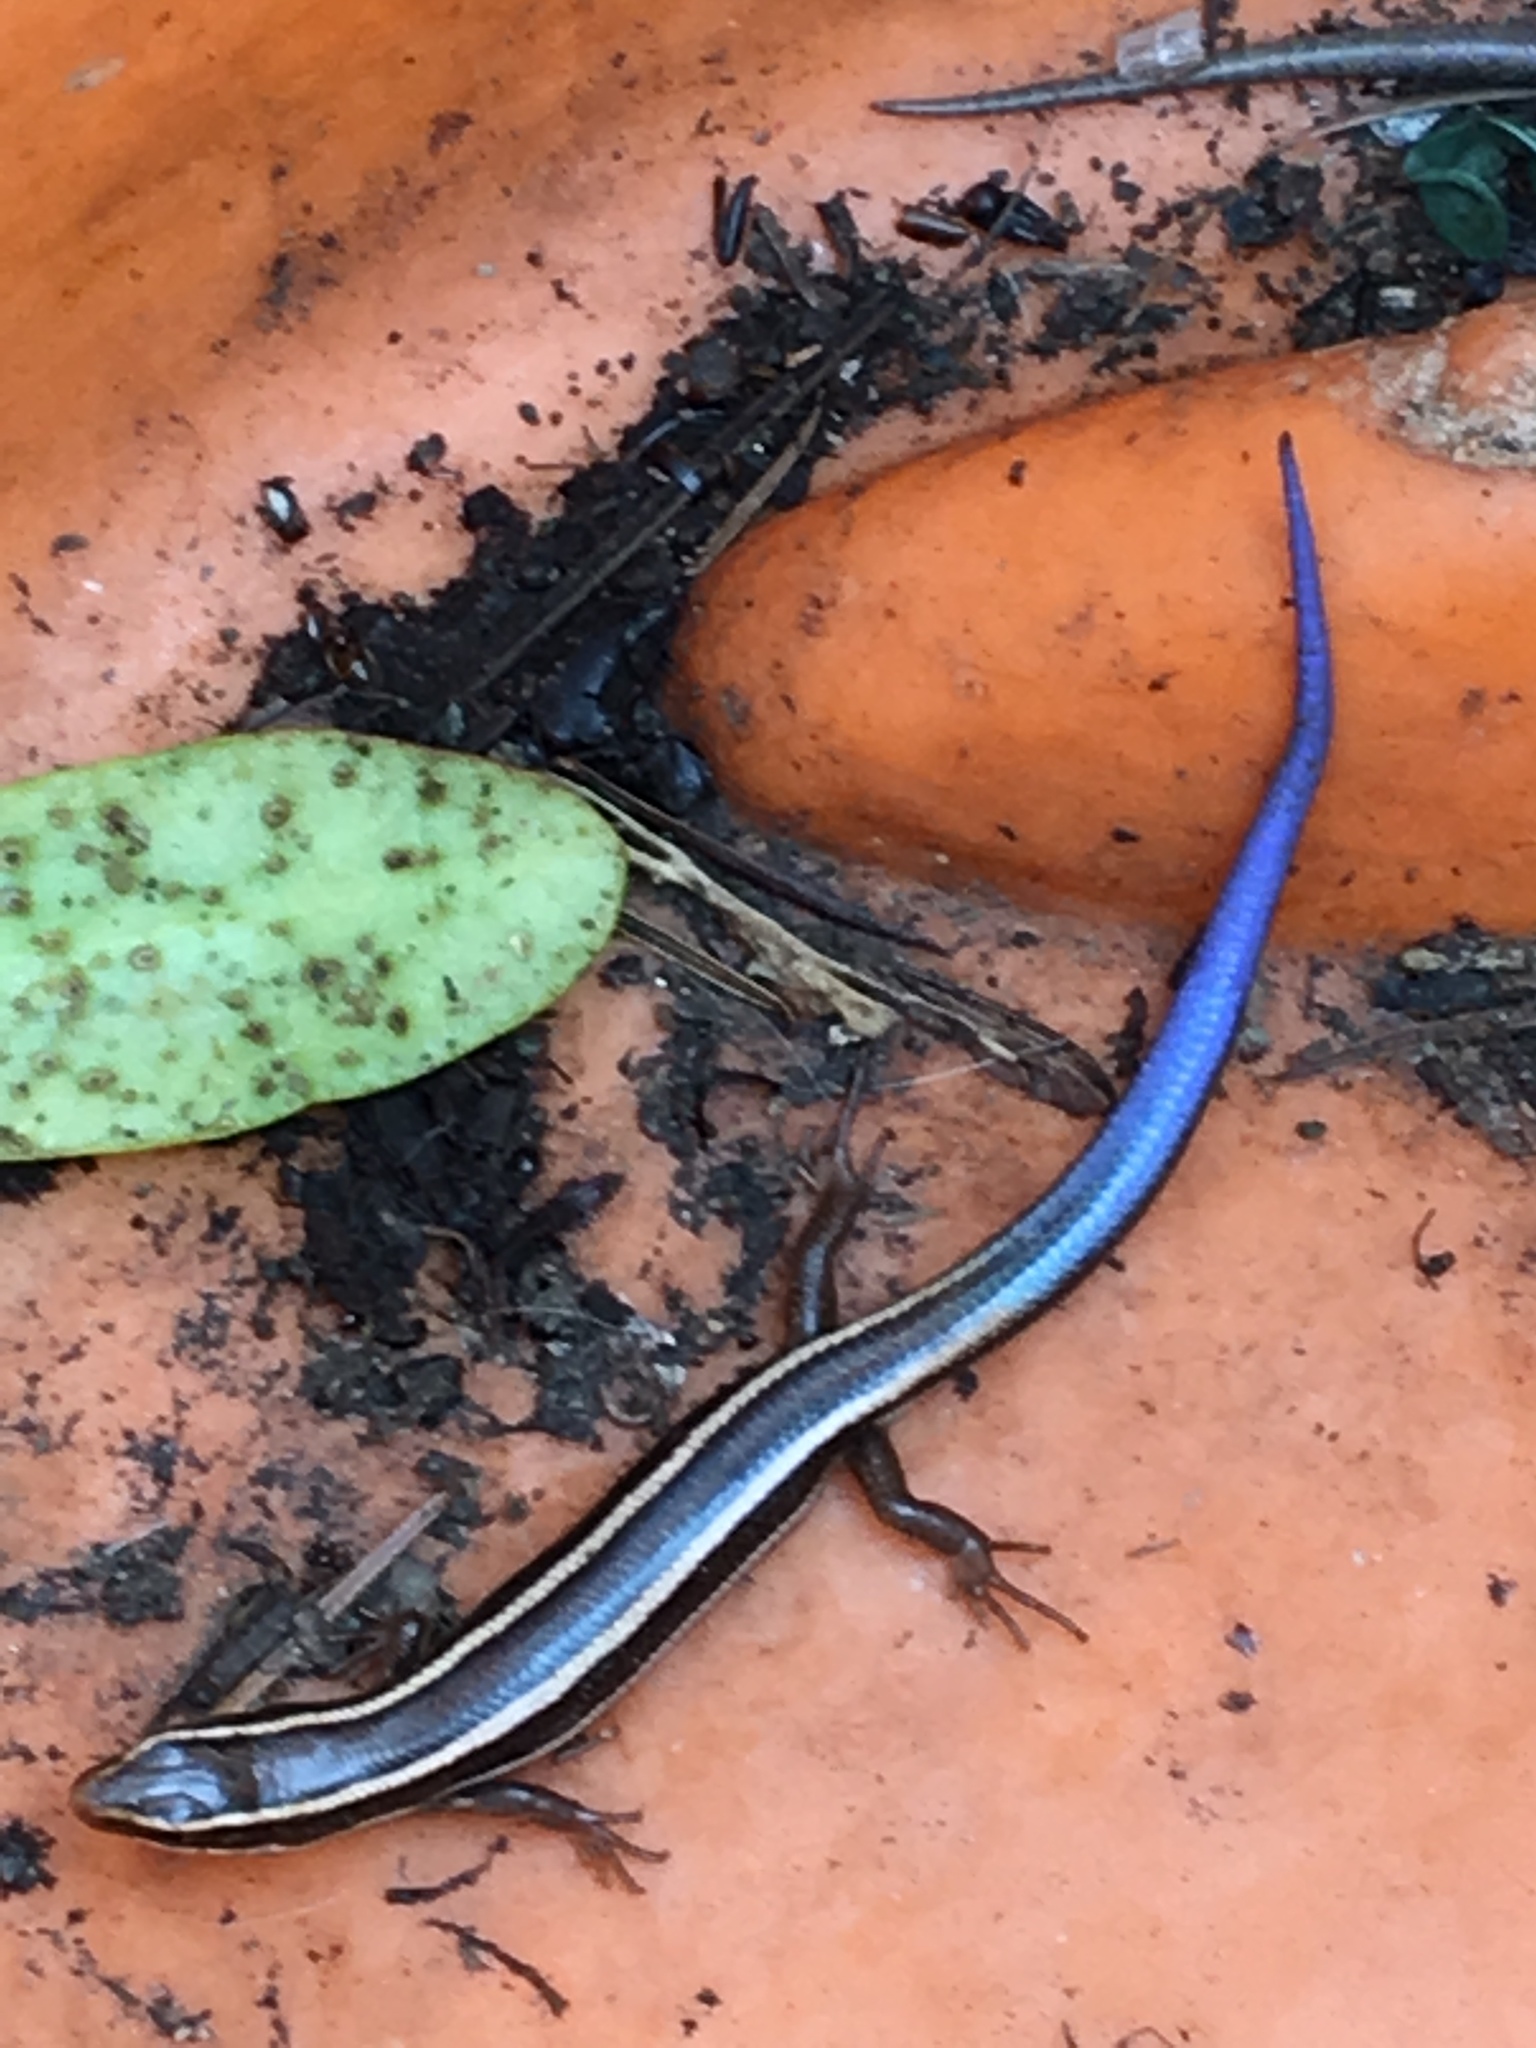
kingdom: Animalia
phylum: Chordata
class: Squamata
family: Scincidae
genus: Plestiodon
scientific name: Plestiodon skiltonianus
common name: Coronado island skink [interparietalis]
